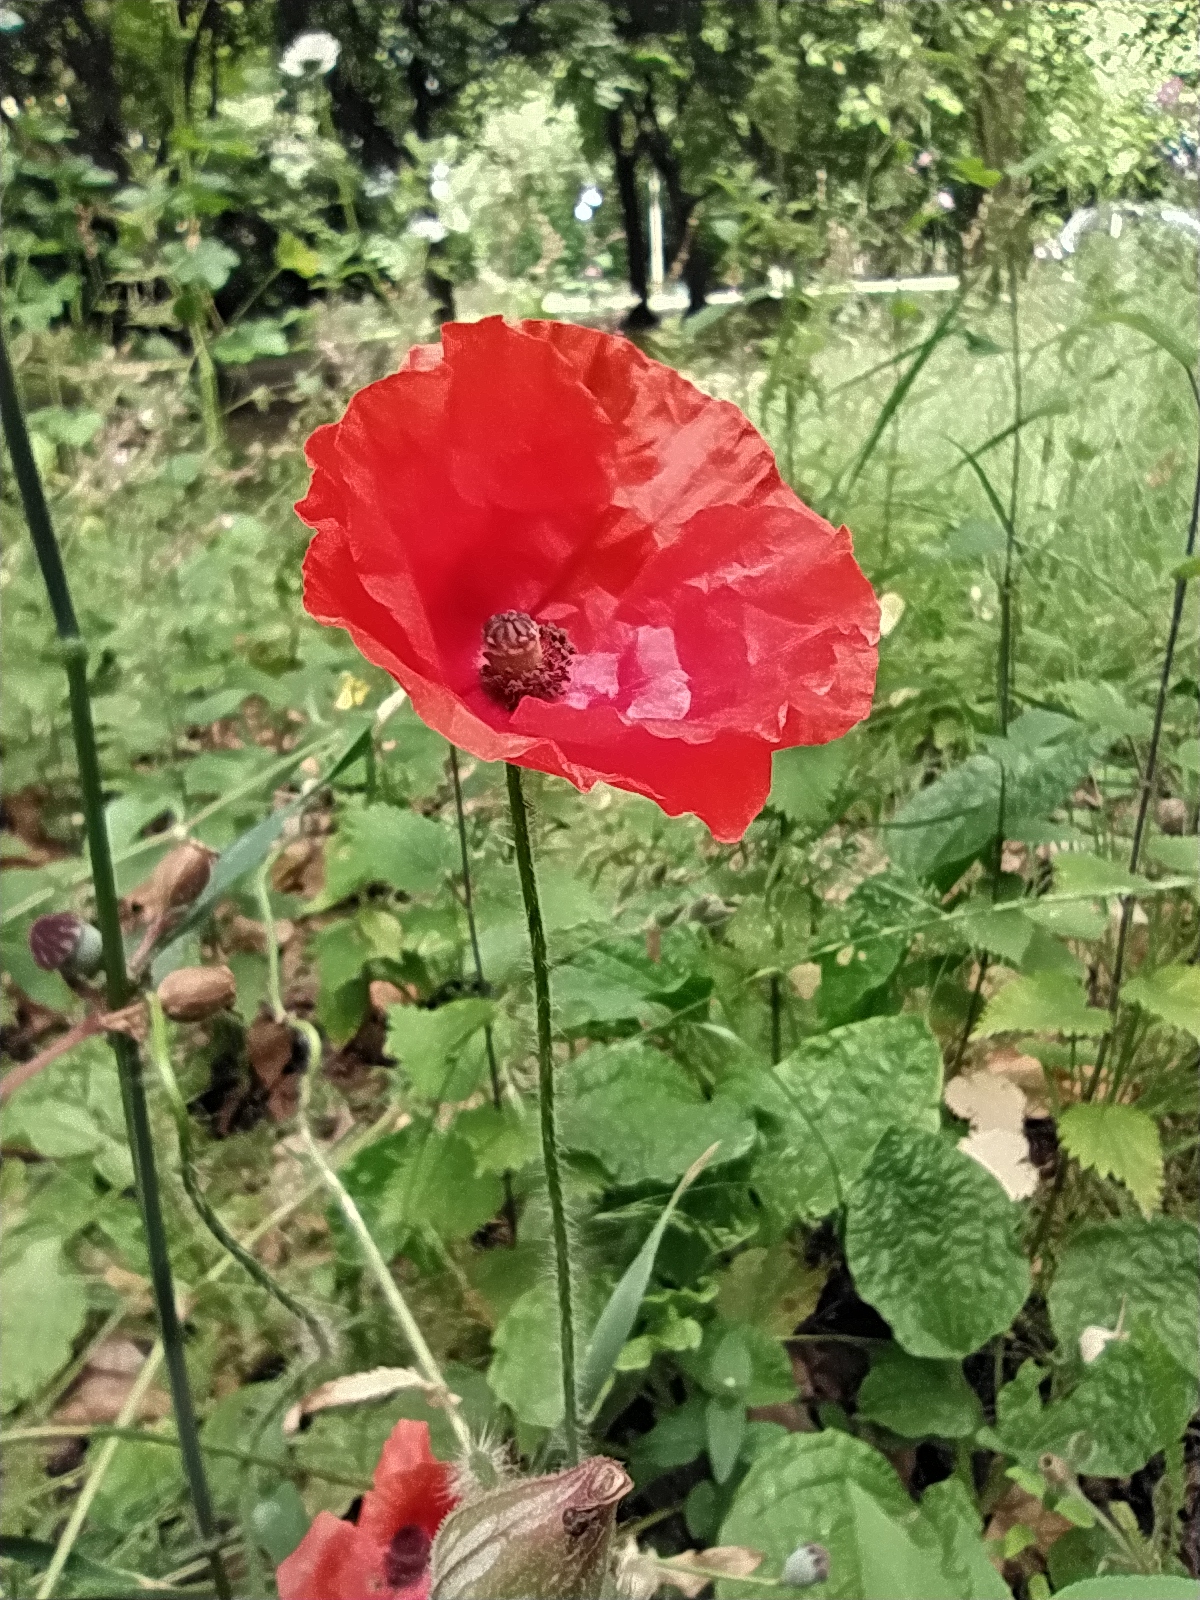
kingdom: Plantae
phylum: Tracheophyta
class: Magnoliopsida
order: Ranunculales
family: Papaveraceae
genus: Papaver
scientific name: Papaver rhoeas
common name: Corn poppy
